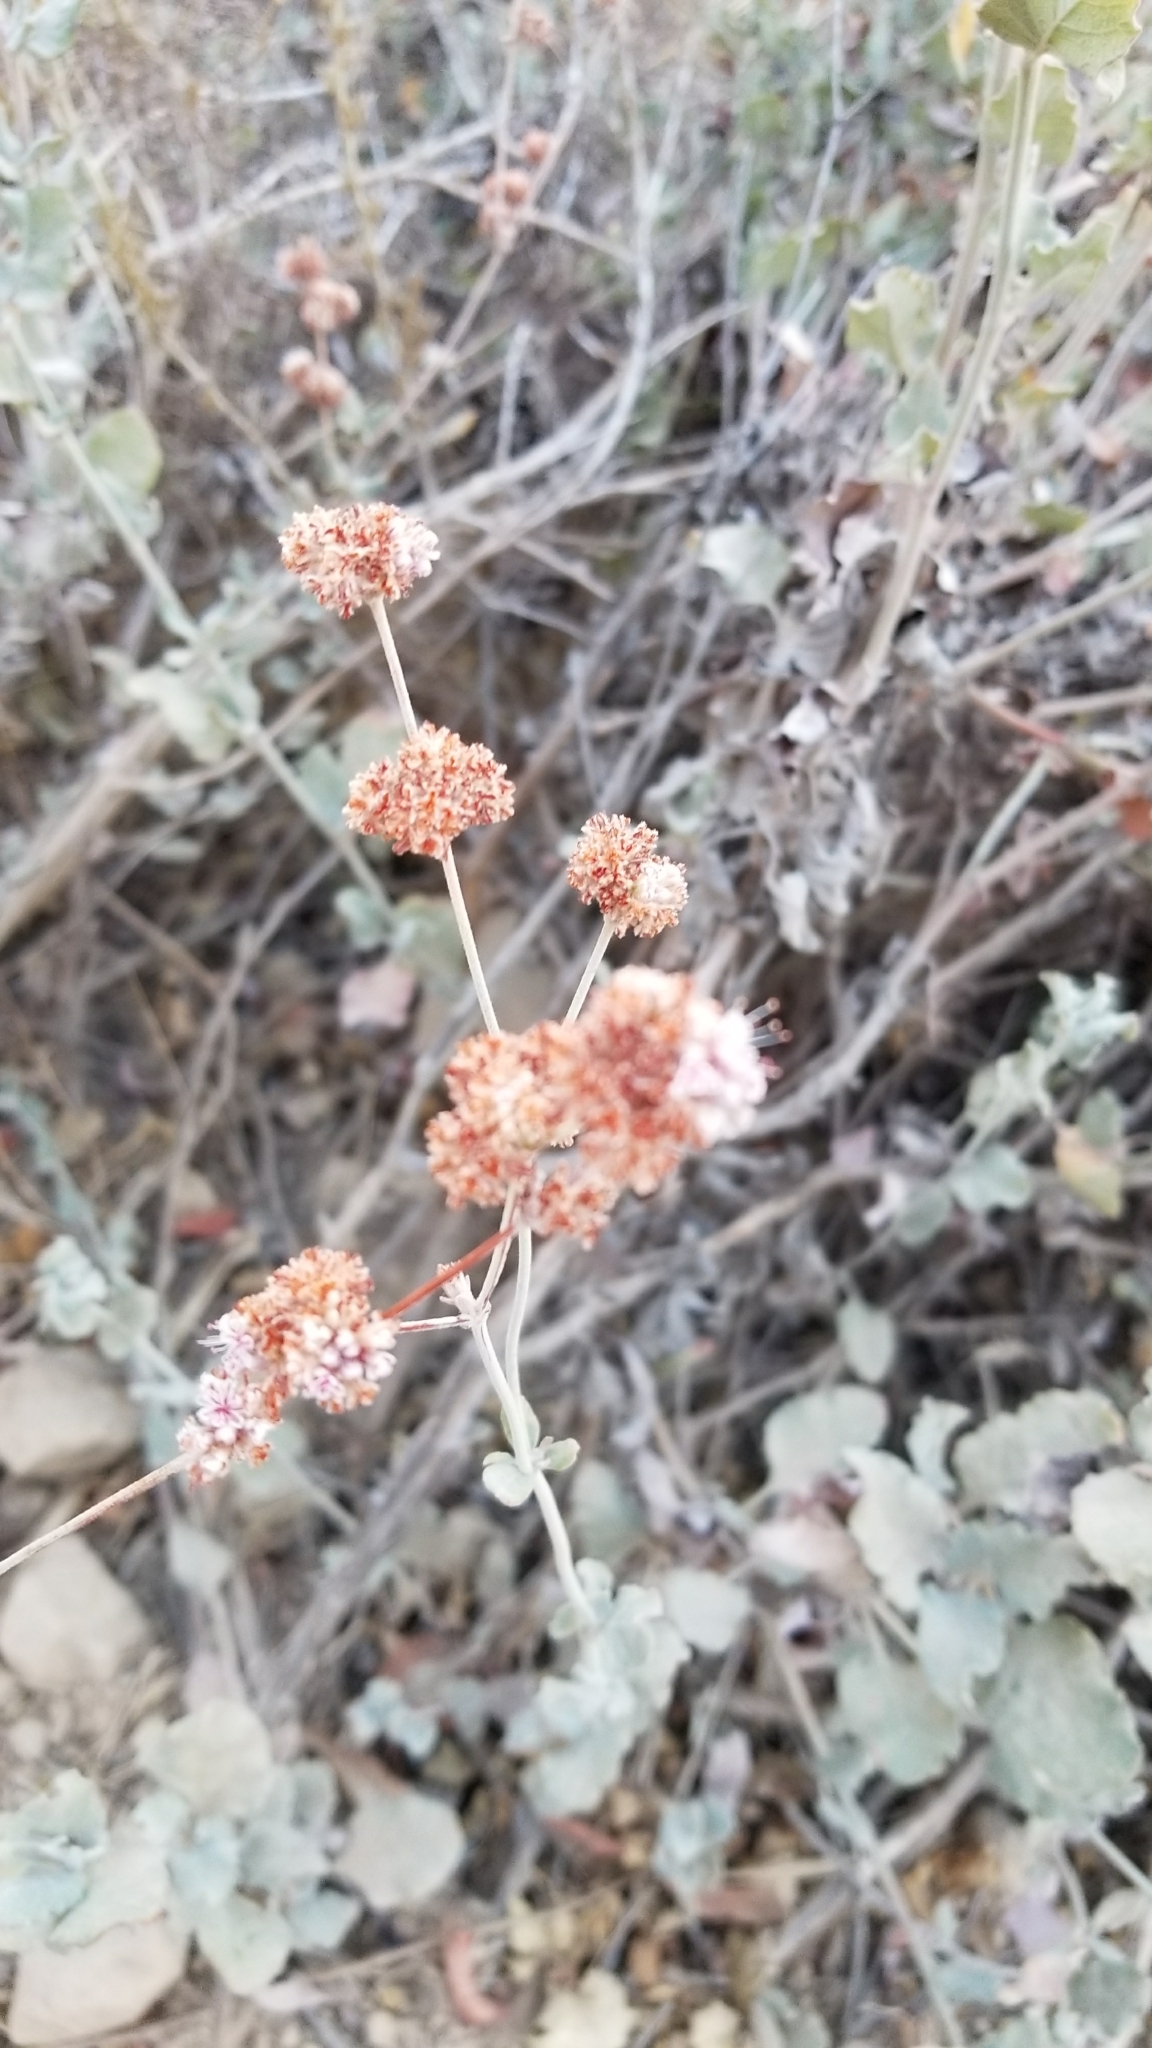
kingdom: Plantae
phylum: Tracheophyta
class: Magnoliopsida
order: Caryophyllales
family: Polygonaceae
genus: Eriogonum
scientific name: Eriogonum cinereum
